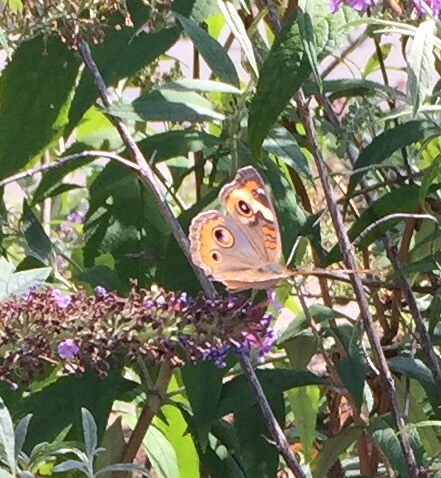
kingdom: Animalia
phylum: Arthropoda
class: Insecta
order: Lepidoptera
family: Nymphalidae
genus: Junonia
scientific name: Junonia coenia
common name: Common buckeye
